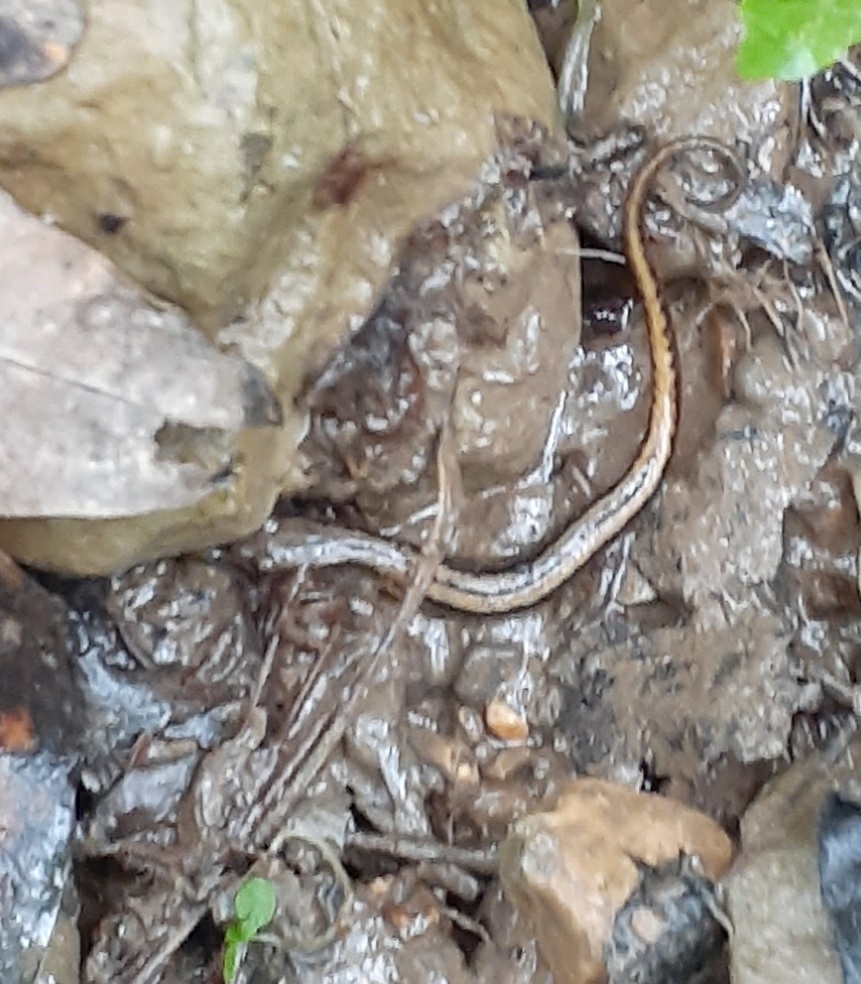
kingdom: Animalia
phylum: Chordata
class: Amphibia
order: Caudata
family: Plethodontidae
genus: Eurycea
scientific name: Eurycea cirrigera
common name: Southern two-lined salamander
